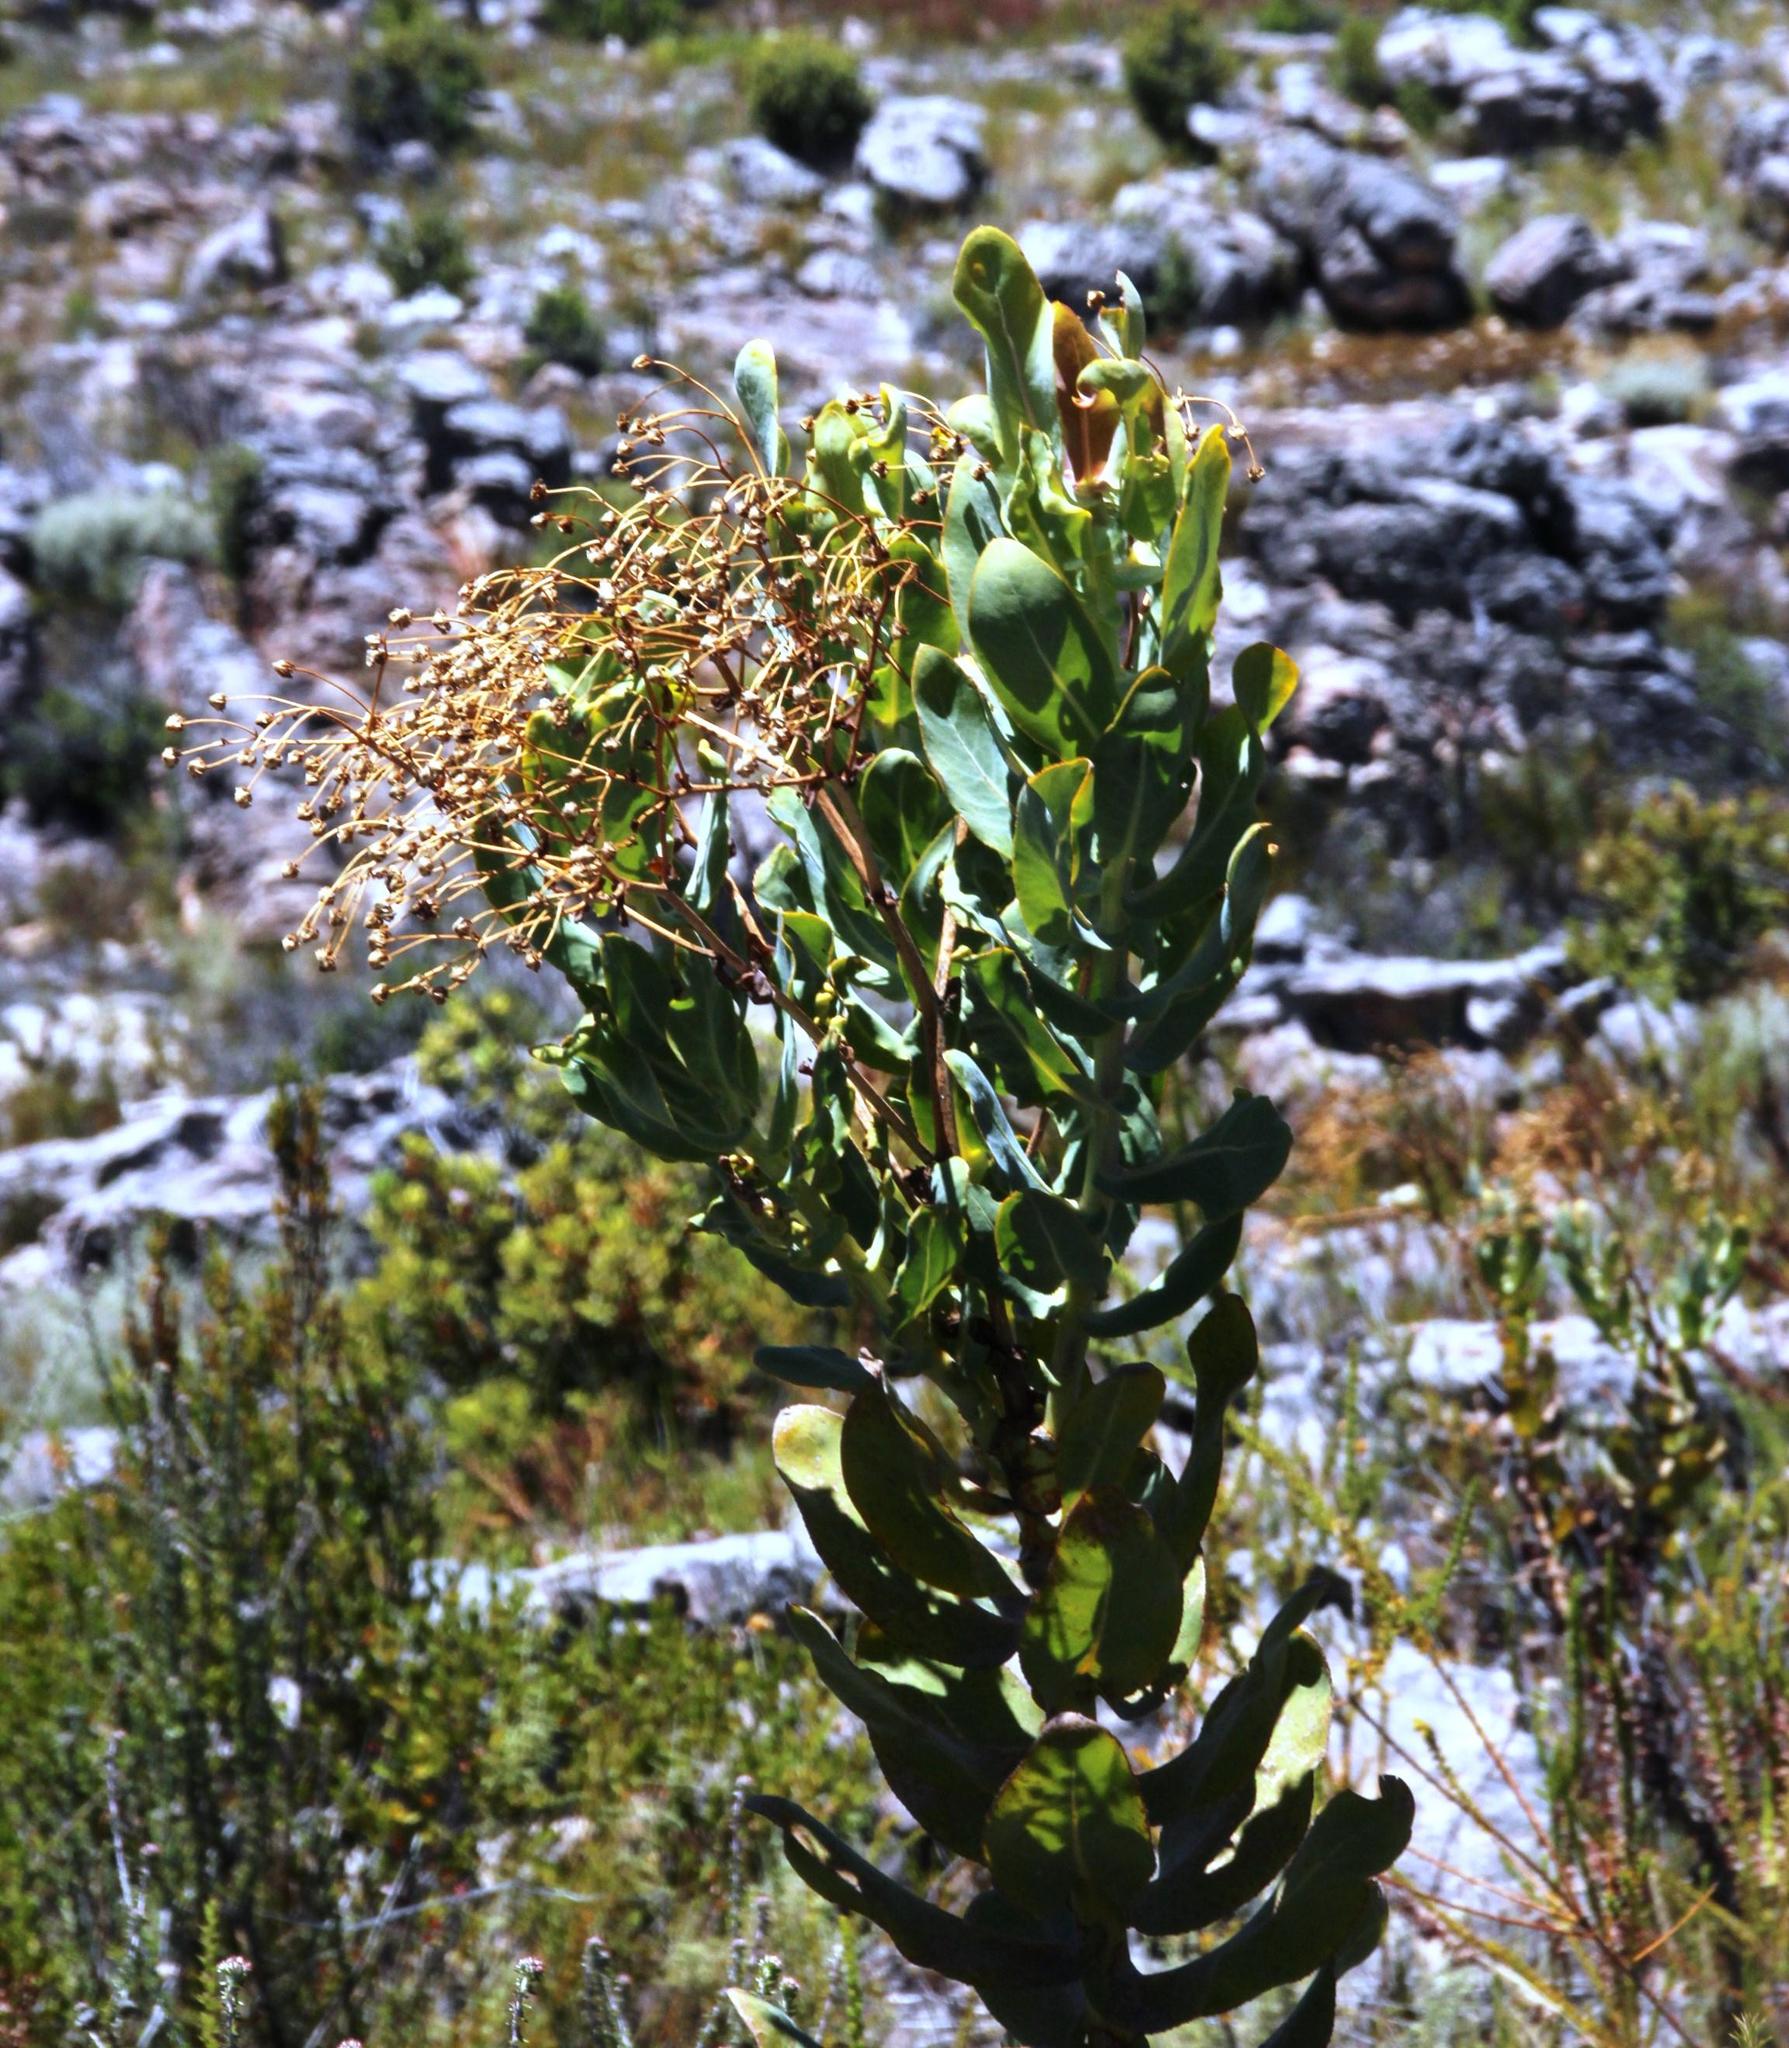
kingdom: Plantae
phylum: Tracheophyta
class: Magnoliopsida
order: Asterales
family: Asteraceae
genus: Othonna
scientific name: Othonna parviflora
